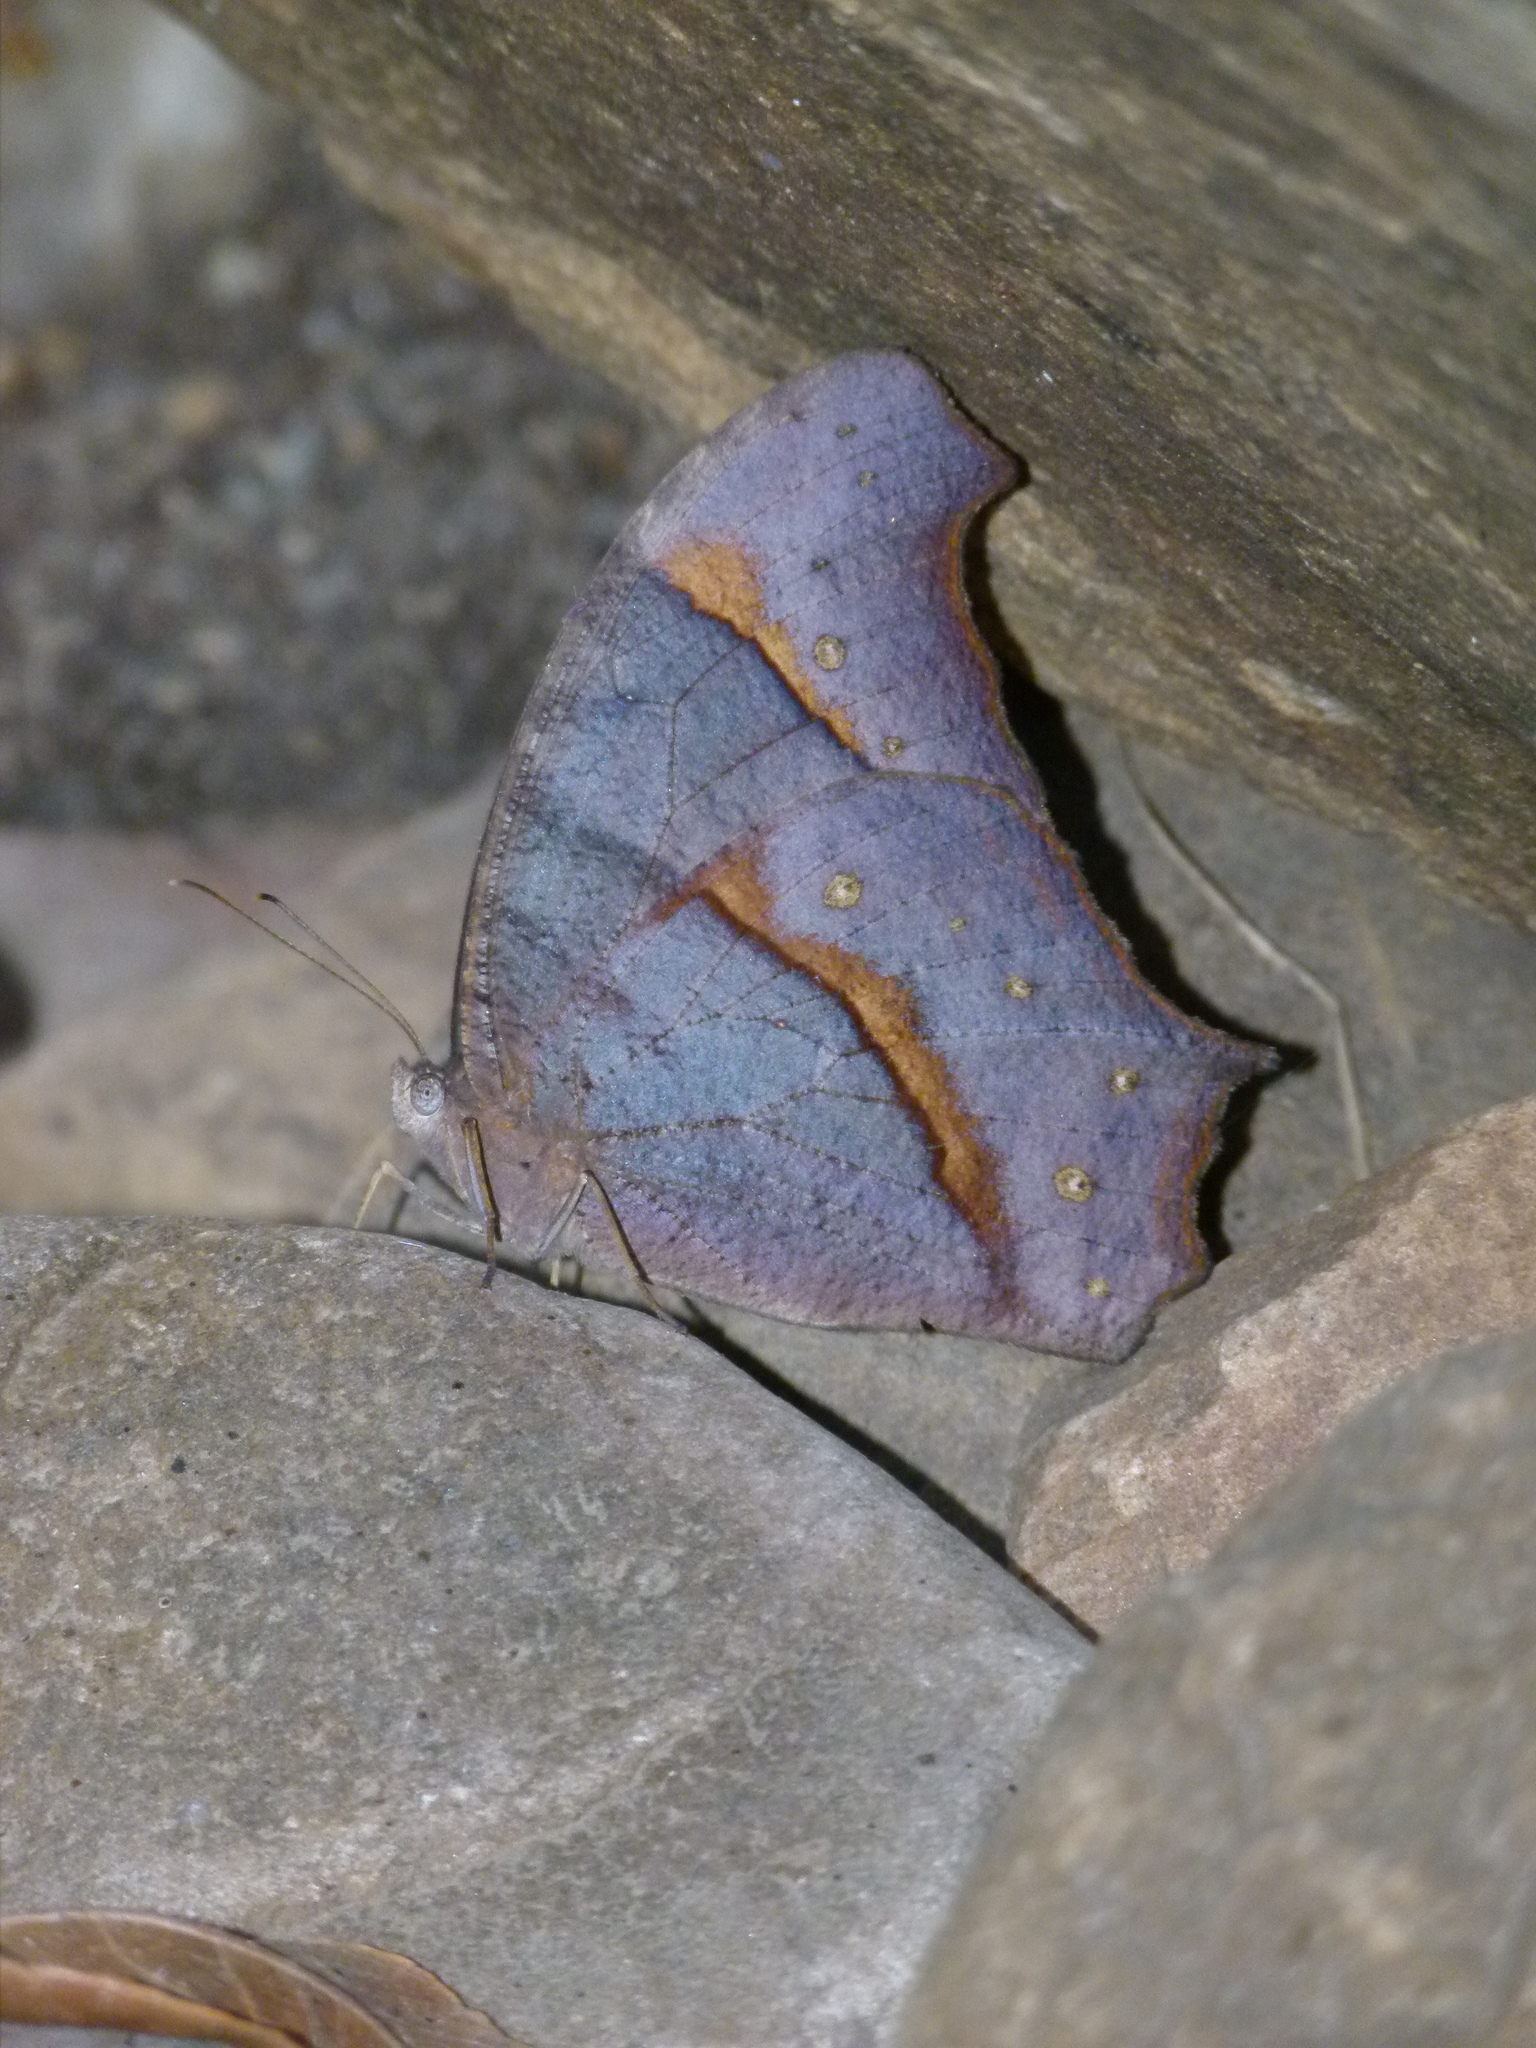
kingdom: Animalia
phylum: Arthropoda
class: Insecta
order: Lepidoptera
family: Nymphalidae
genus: Melanitis
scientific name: Melanitis leda
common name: Twilight brown
